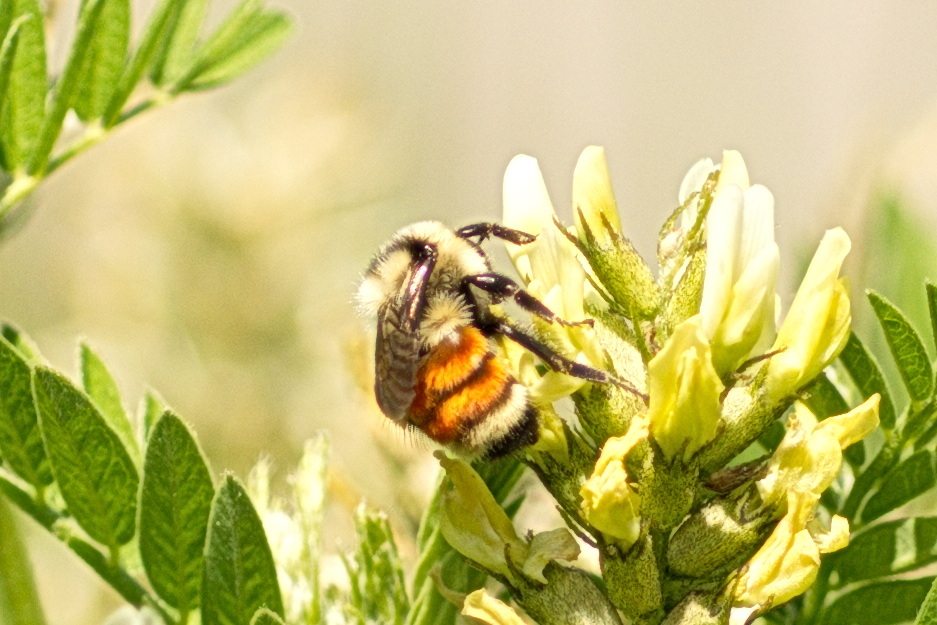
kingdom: Animalia
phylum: Arthropoda
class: Insecta
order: Hymenoptera
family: Apidae
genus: Bombus
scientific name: Bombus huntii
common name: Hunt bumble bee
